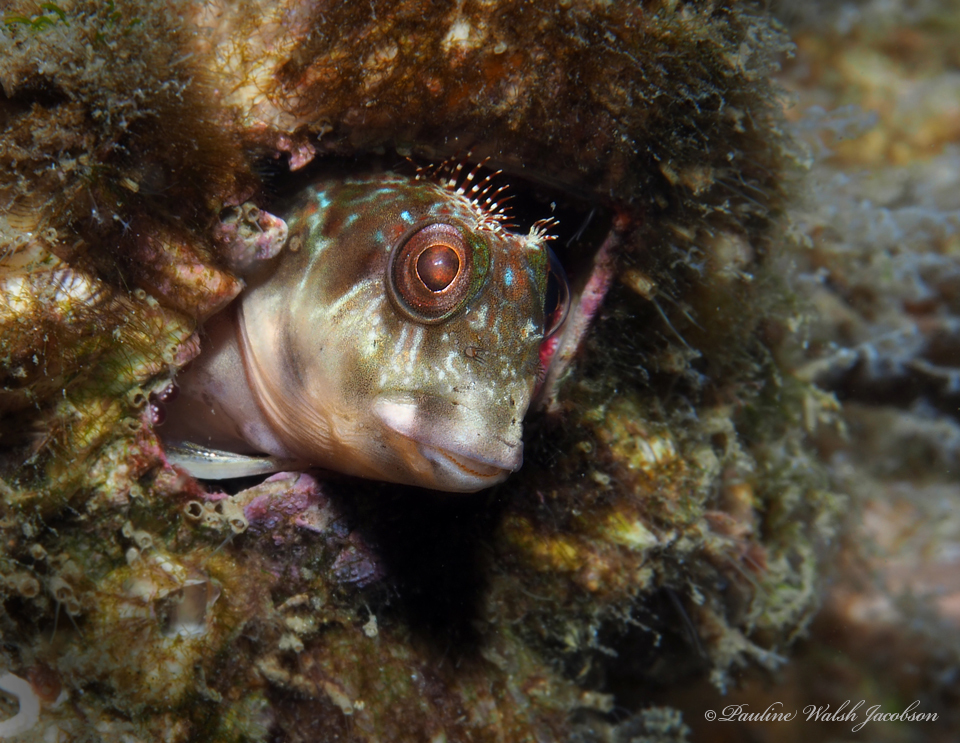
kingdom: Animalia
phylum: Chordata
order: Perciformes
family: Blenniidae
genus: Scartella
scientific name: Scartella cristata
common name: Molly miller
